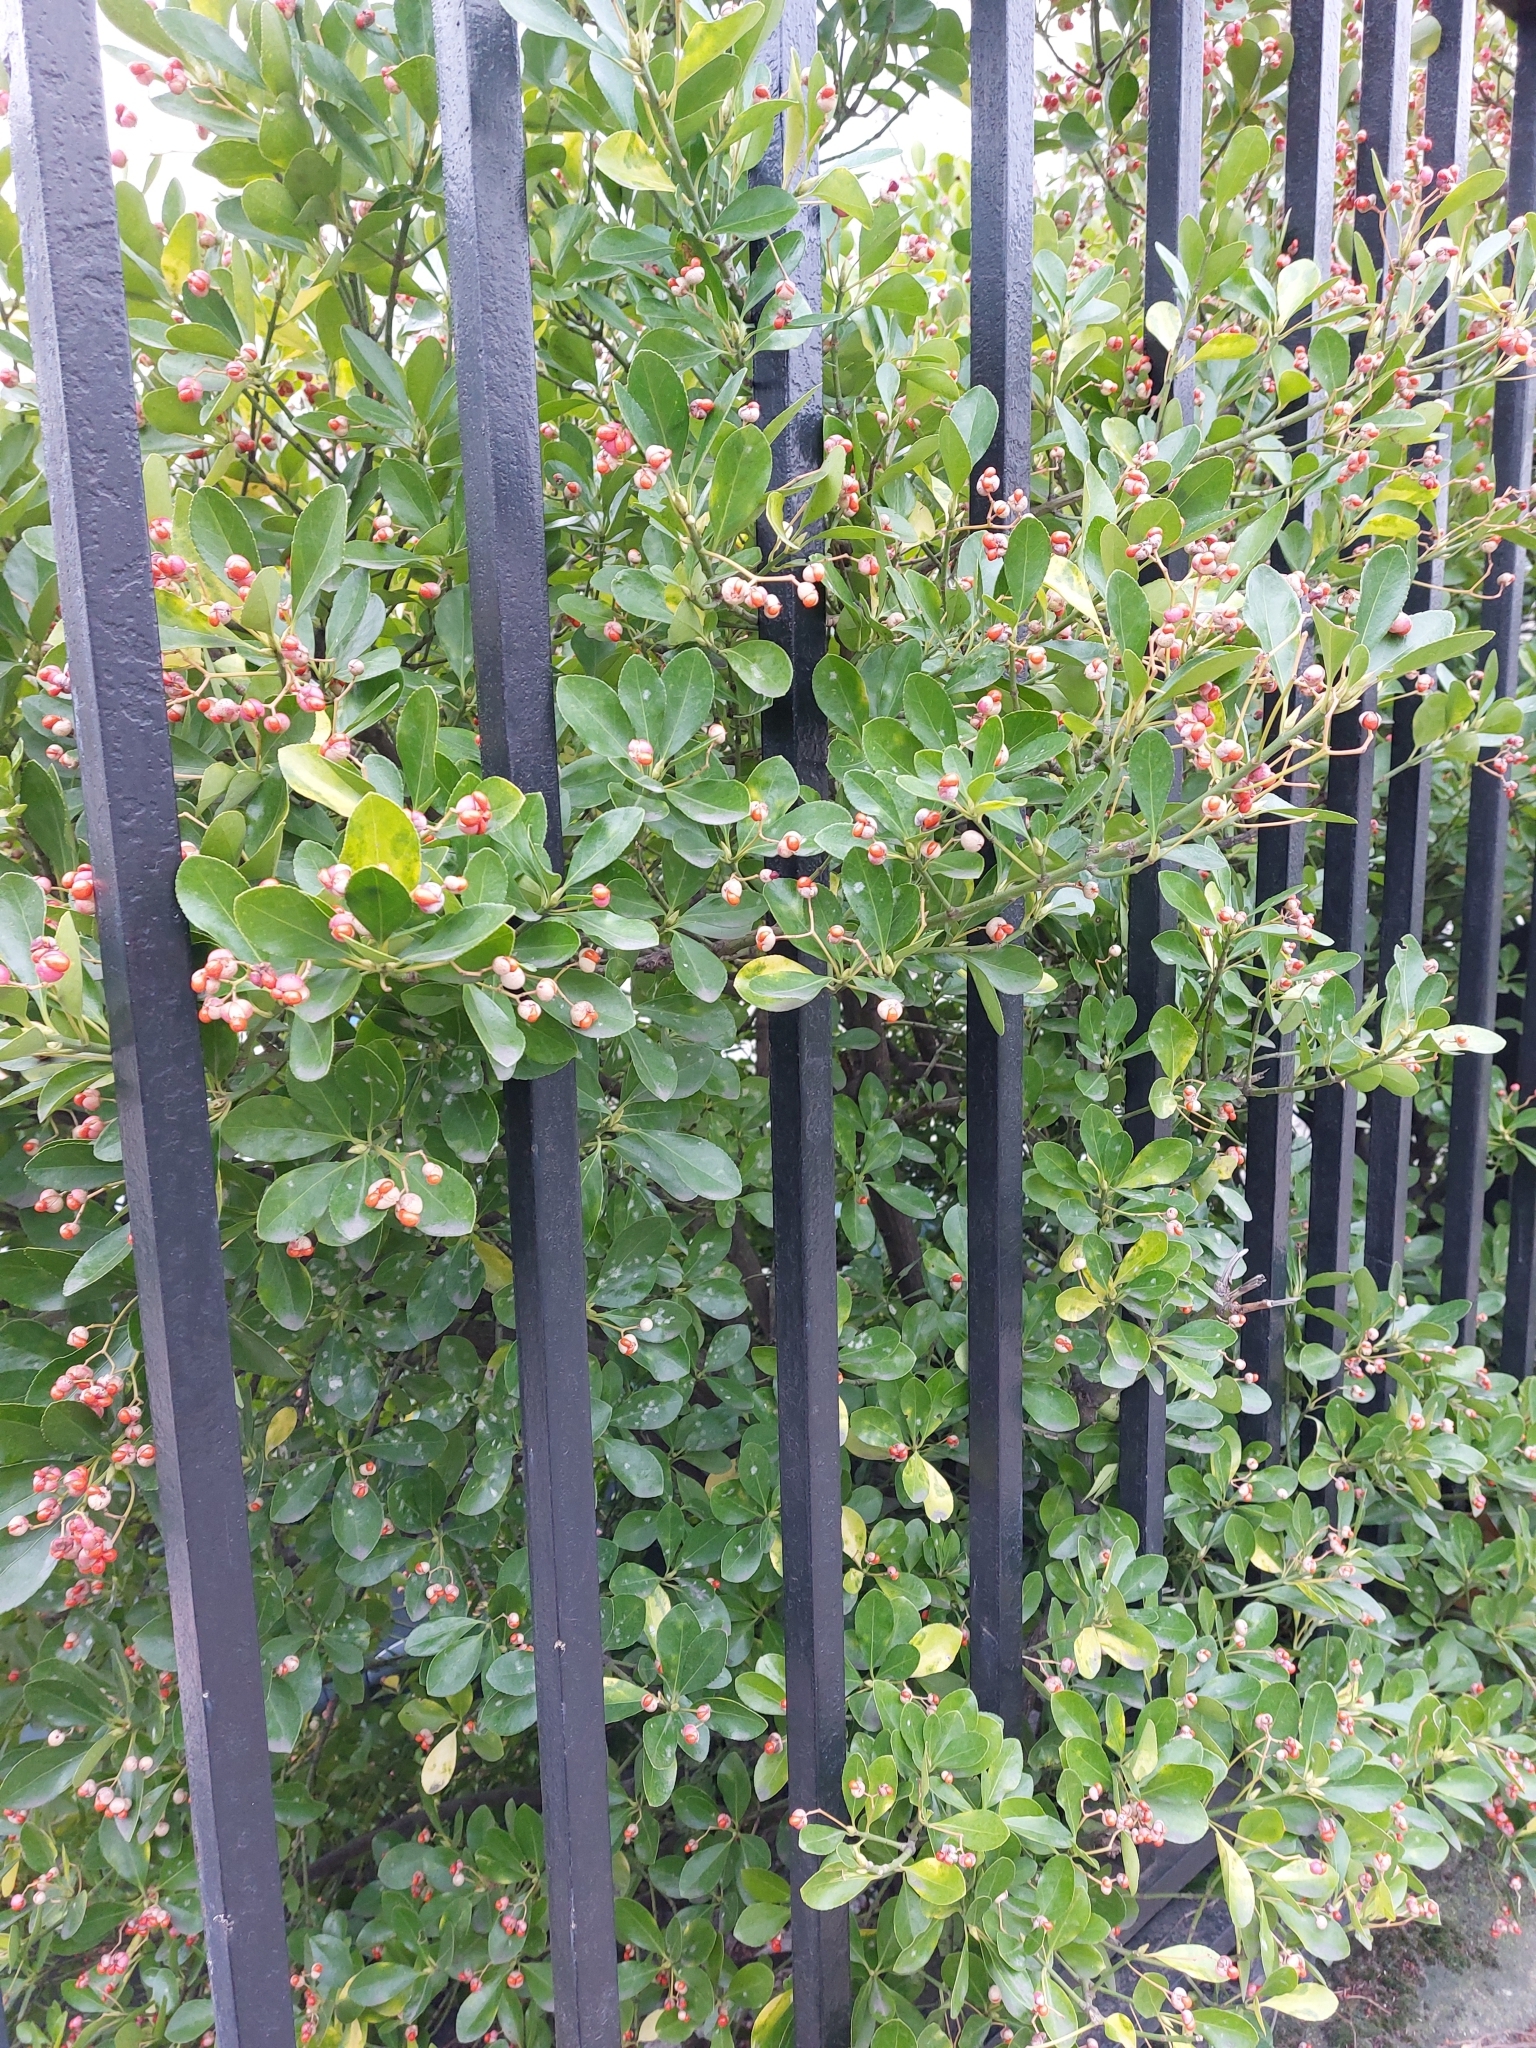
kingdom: Plantae
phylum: Tracheophyta
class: Magnoliopsida
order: Celastrales
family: Celastraceae
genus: Euonymus
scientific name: Euonymus japonicus
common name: Japanese spindletree
